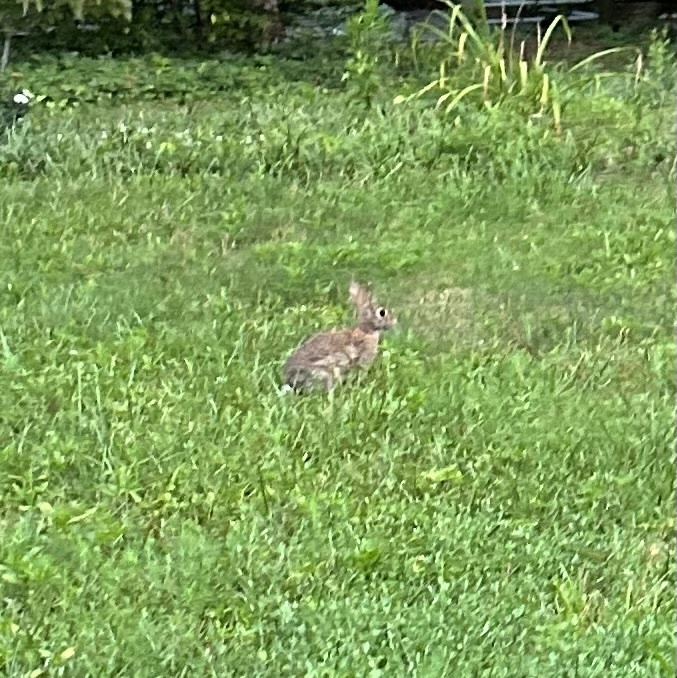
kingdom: Animalia
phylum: Chordata
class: Mammalia
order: Lagomorpha
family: Leporidae
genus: Sylvilagus
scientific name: Sylvilagus floridanus
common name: Eastern cottontail
